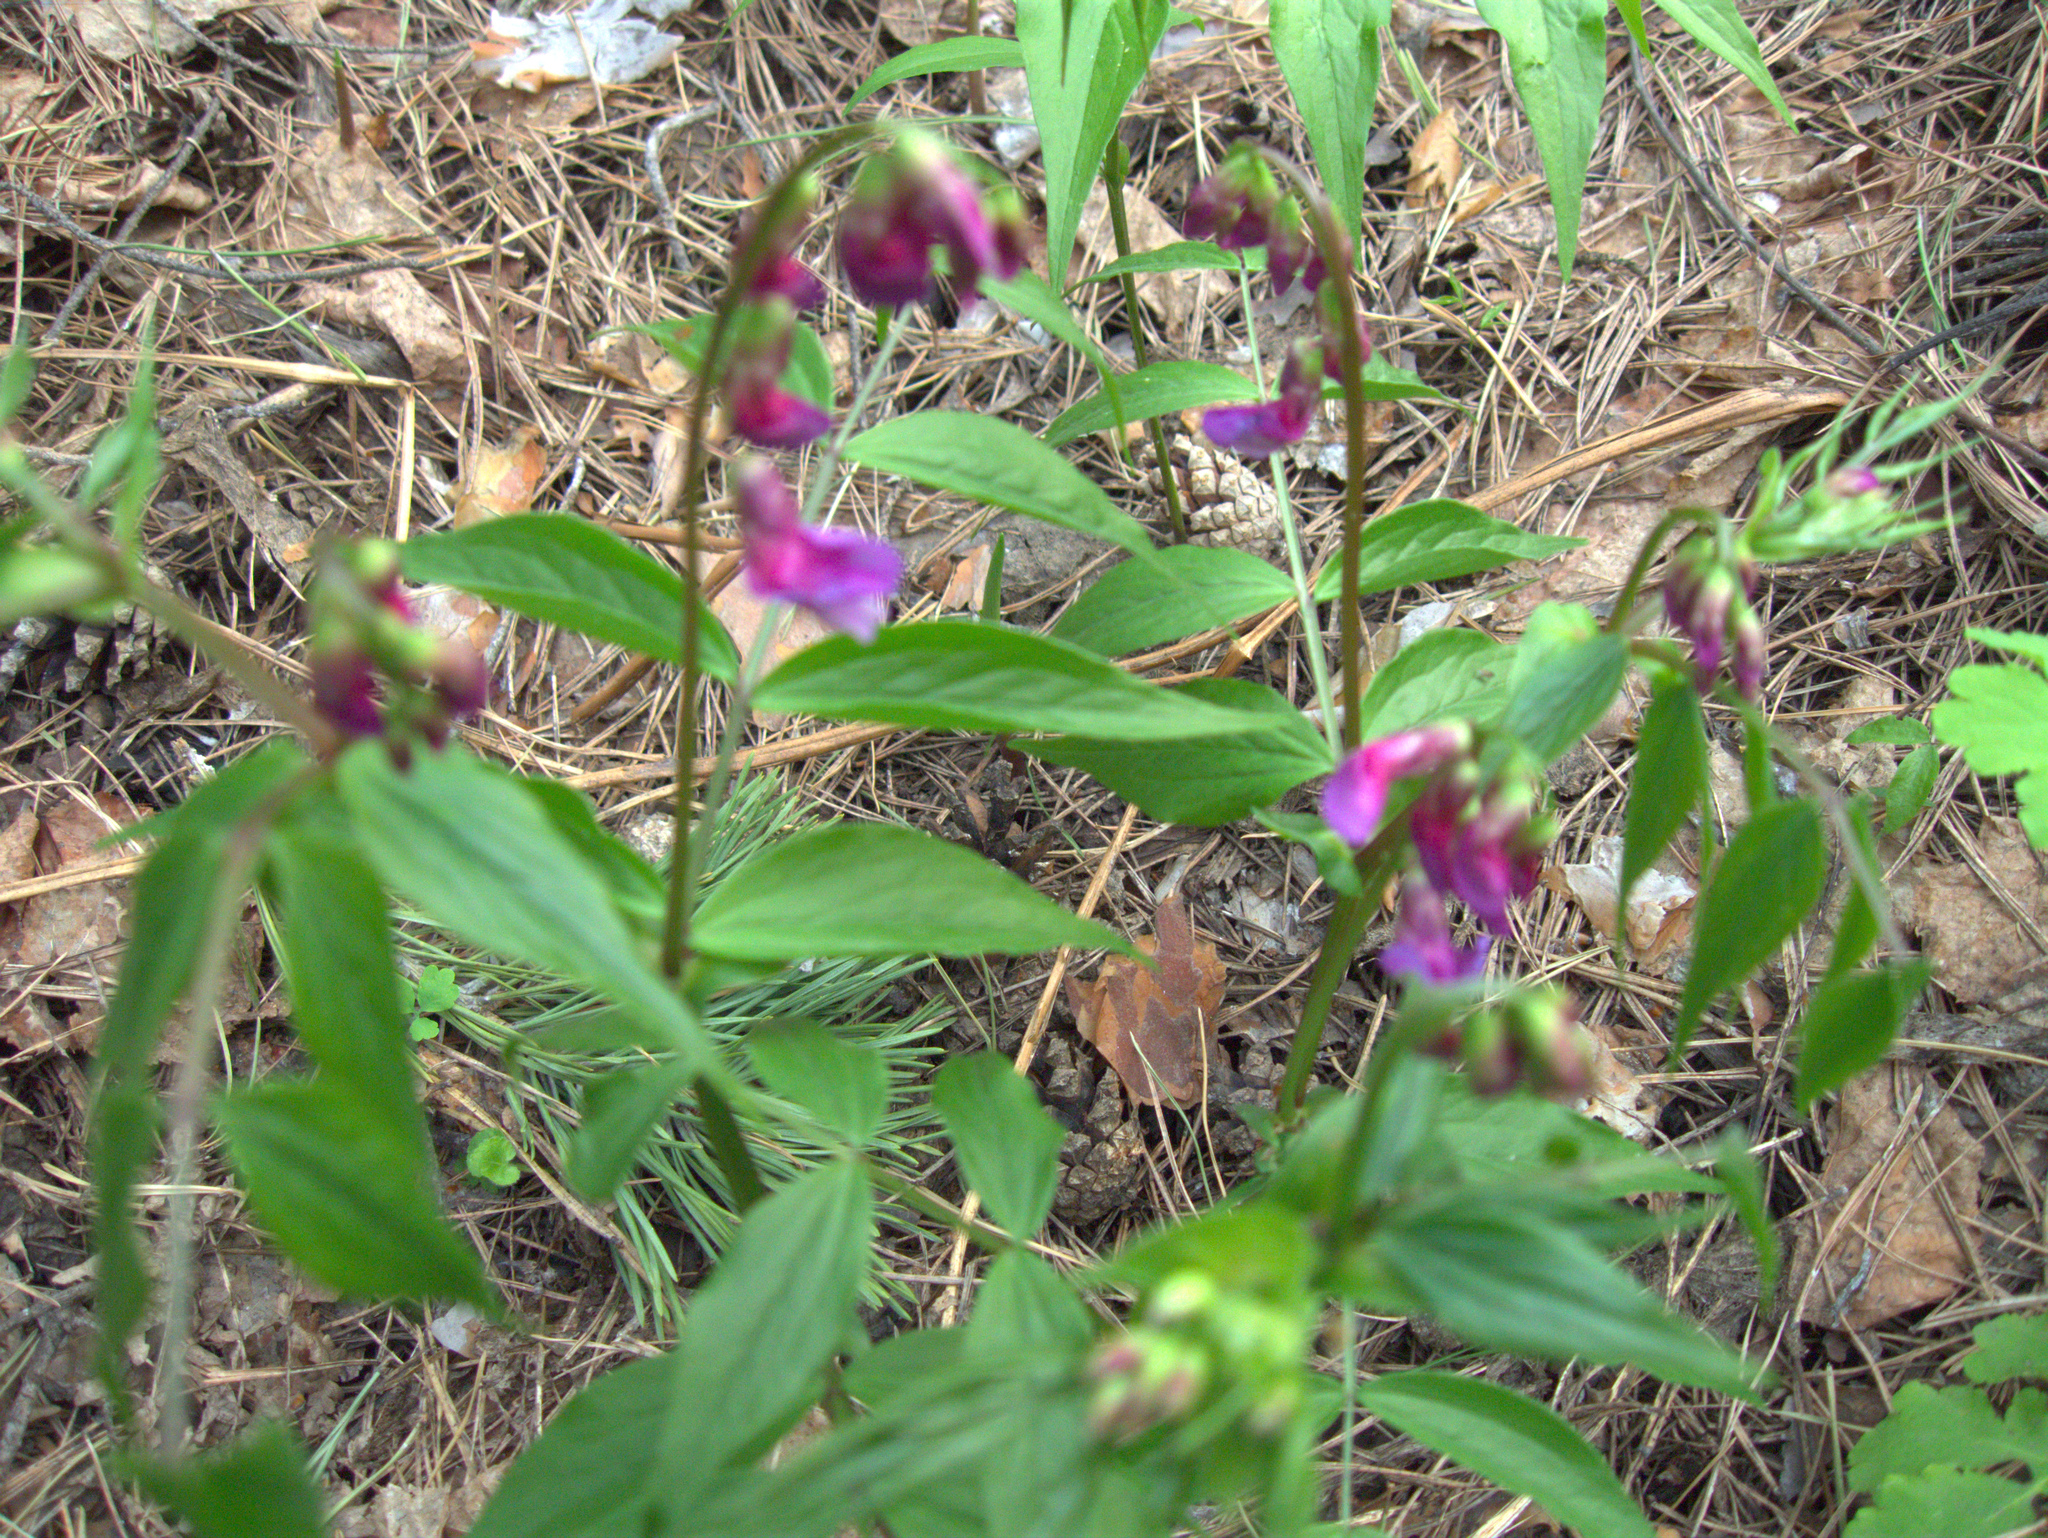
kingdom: Plantae
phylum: Tracheophyta
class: Magnoliopsida
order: Fabales
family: Fabaceae
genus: Lathyrus
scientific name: Lathyrus vernus
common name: Spring pea
